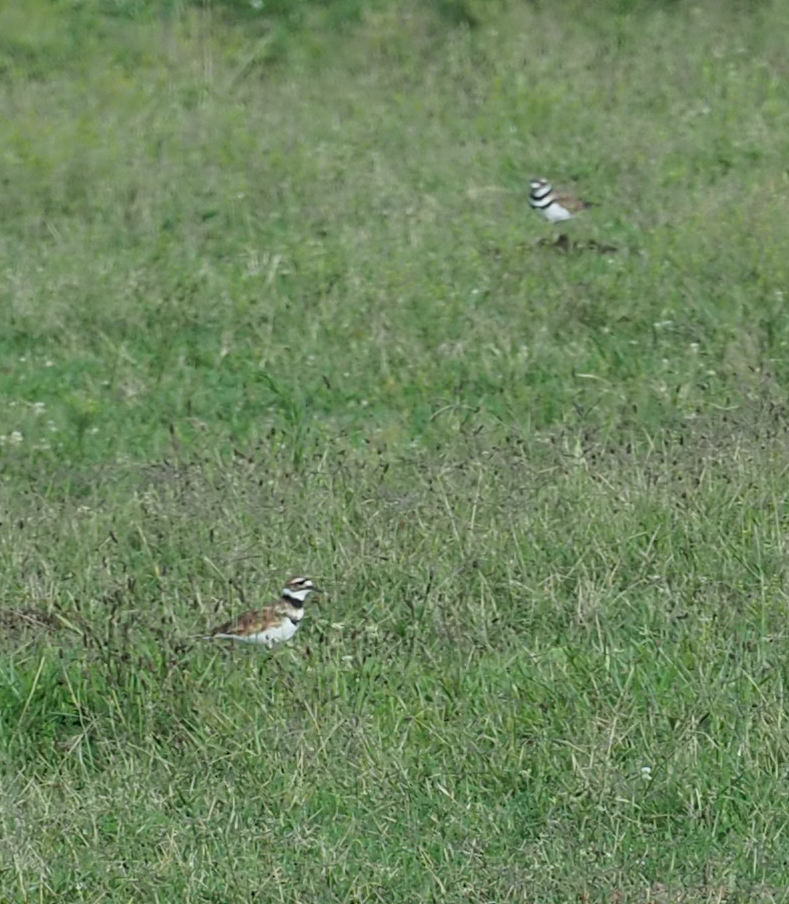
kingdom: Animalia
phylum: Chordata
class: Aves
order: Charadriiformes
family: Charadriidae
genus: Charadrius
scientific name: Charadrius vociferus
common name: Killdeer
